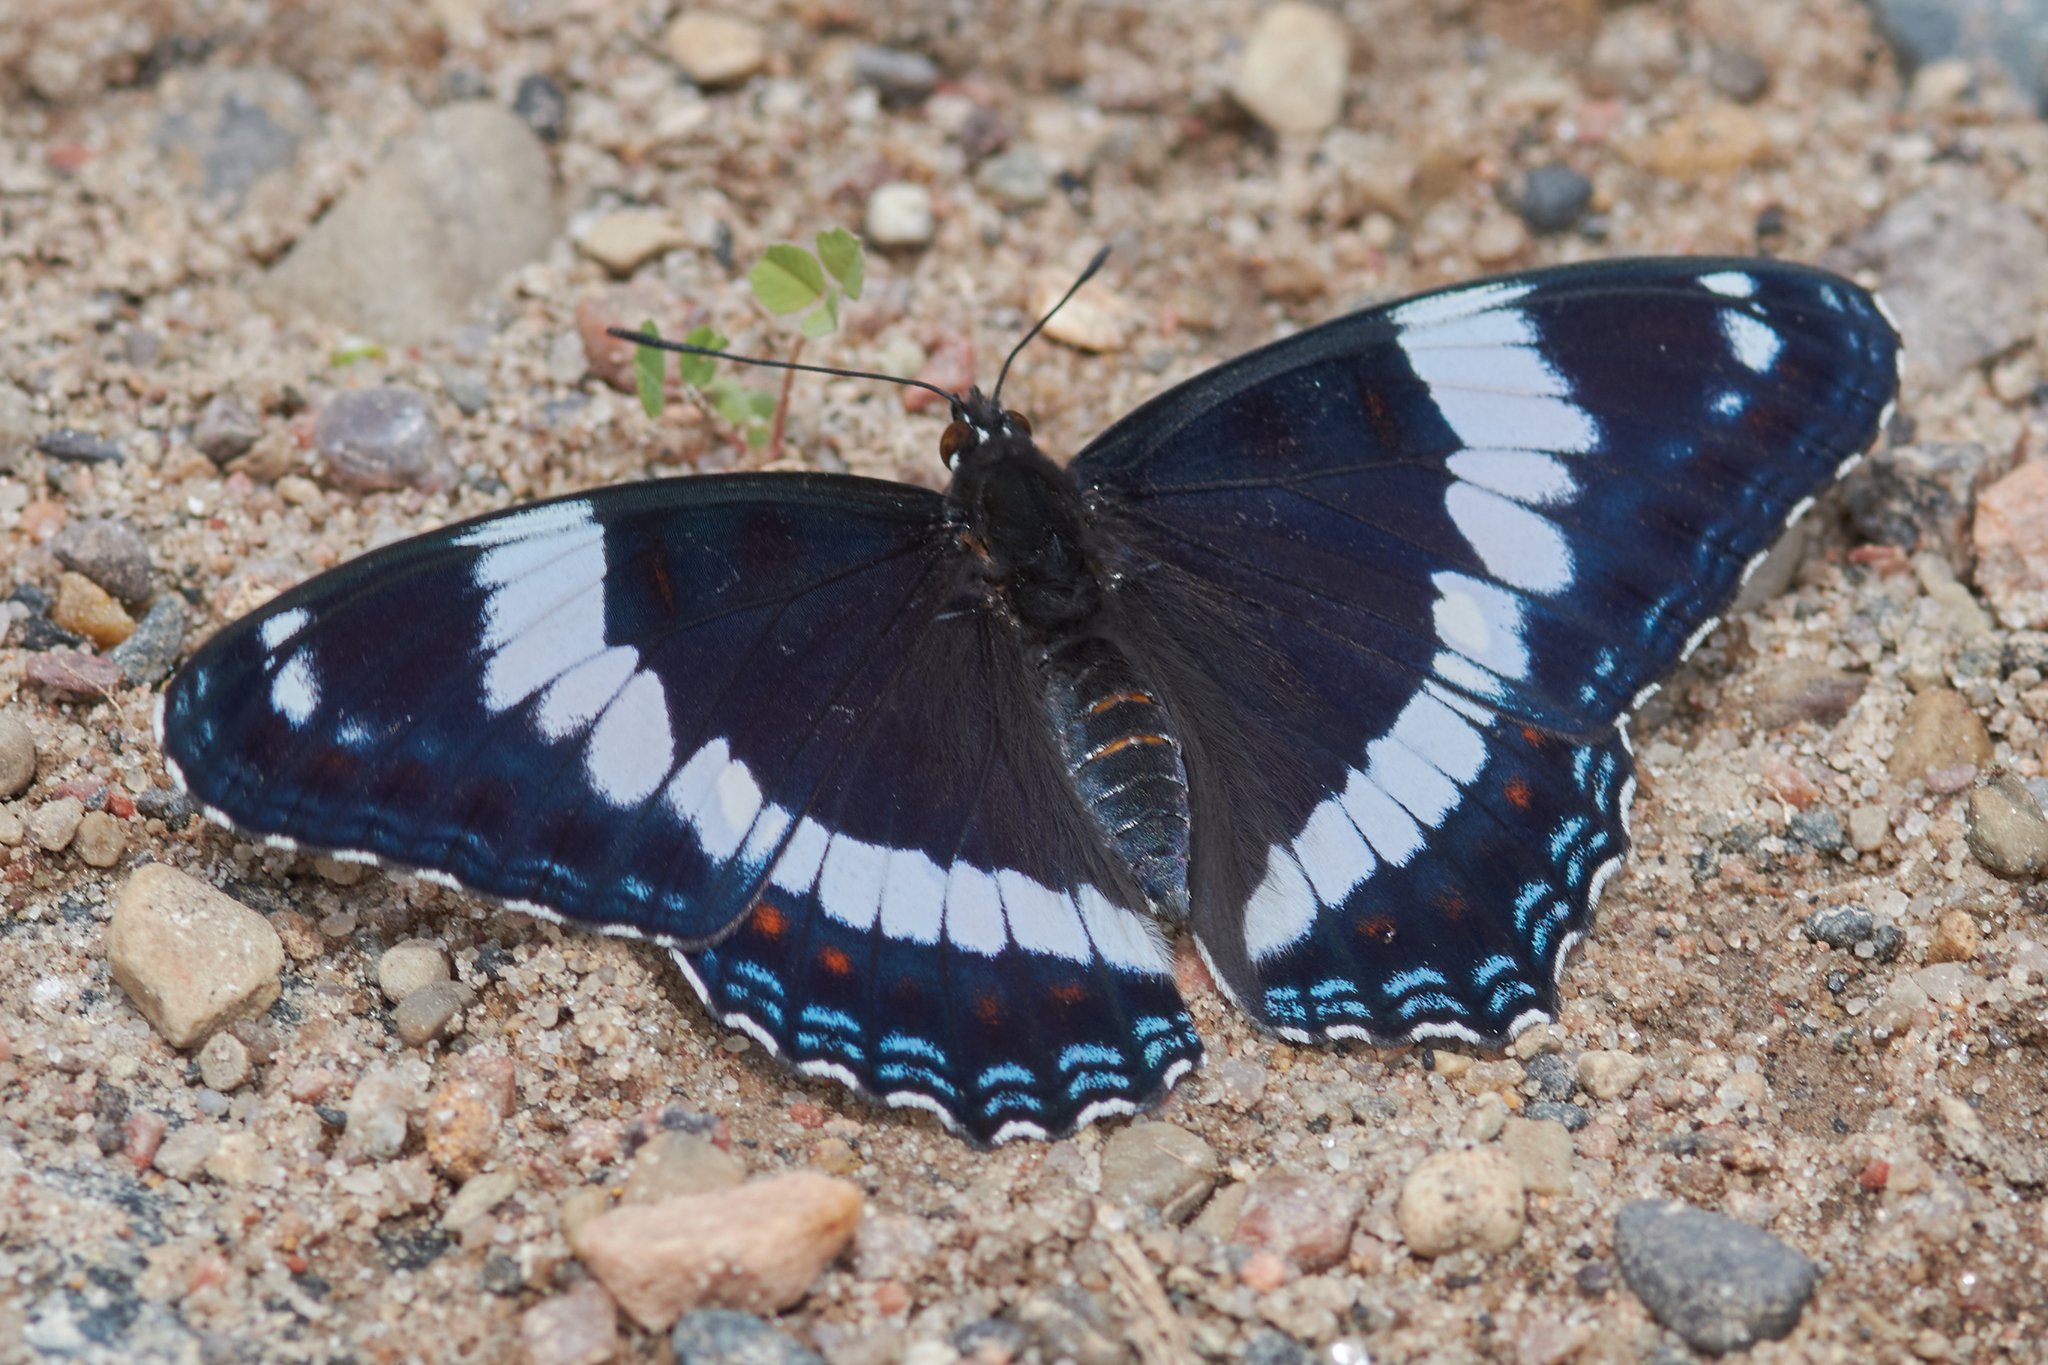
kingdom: Animalia
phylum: Arthropoda
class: Insecta
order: Lepidoptera
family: Nymphalidae
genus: Limenitis
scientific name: Limenitis arthemis
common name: Red-spotted admiral
